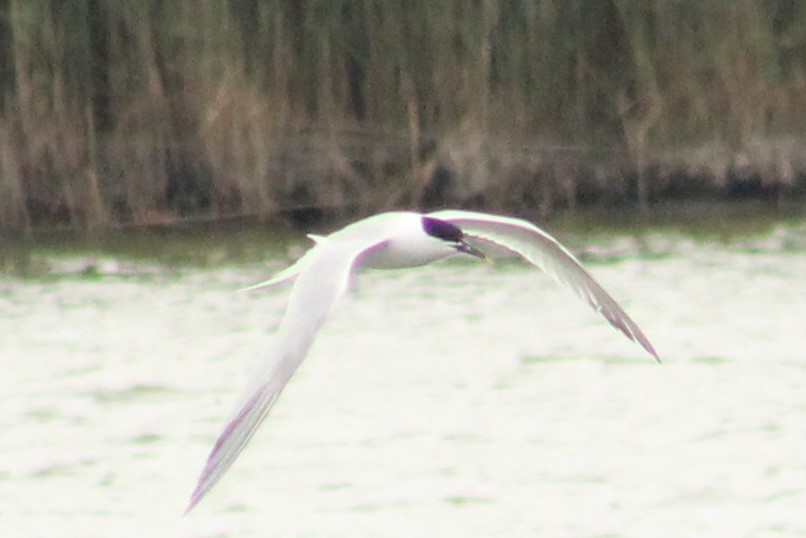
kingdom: Animalia
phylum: Chordata
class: Aves
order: Charadriiformes
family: Laridae
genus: Thalasseus
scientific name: Thalasseus sandvicensis
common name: Sandwich tern
